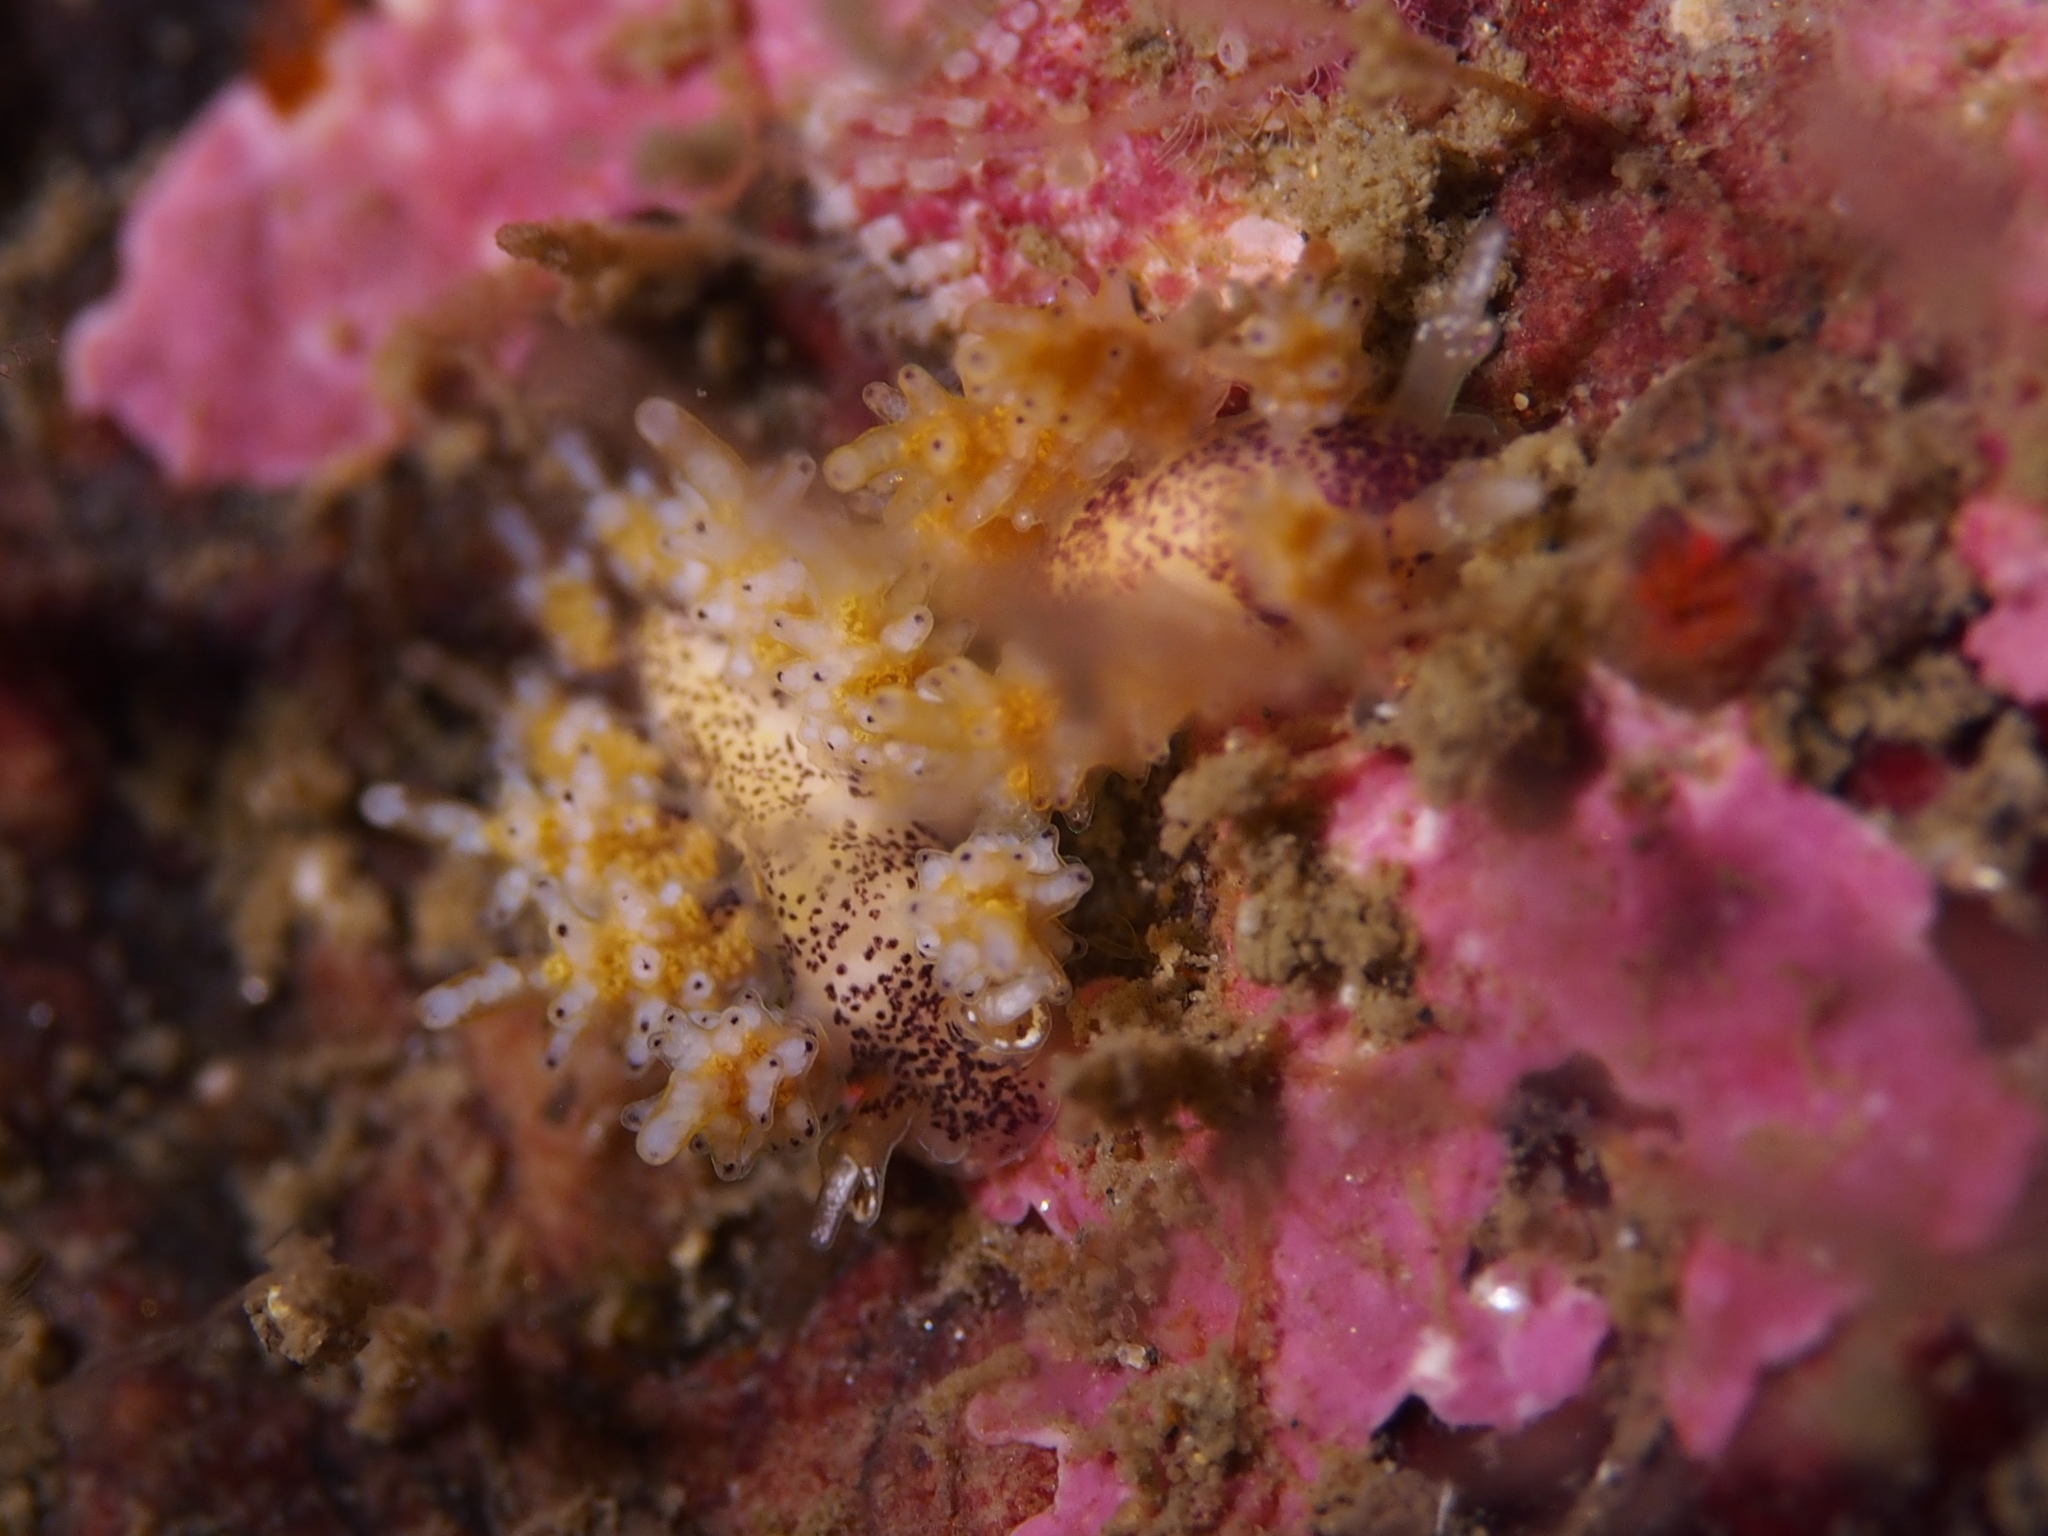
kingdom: Animalia
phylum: Mollusca
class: Gastropoda
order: Nudibranchia
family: Dotidae
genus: Doto
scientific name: Doto dunnei
